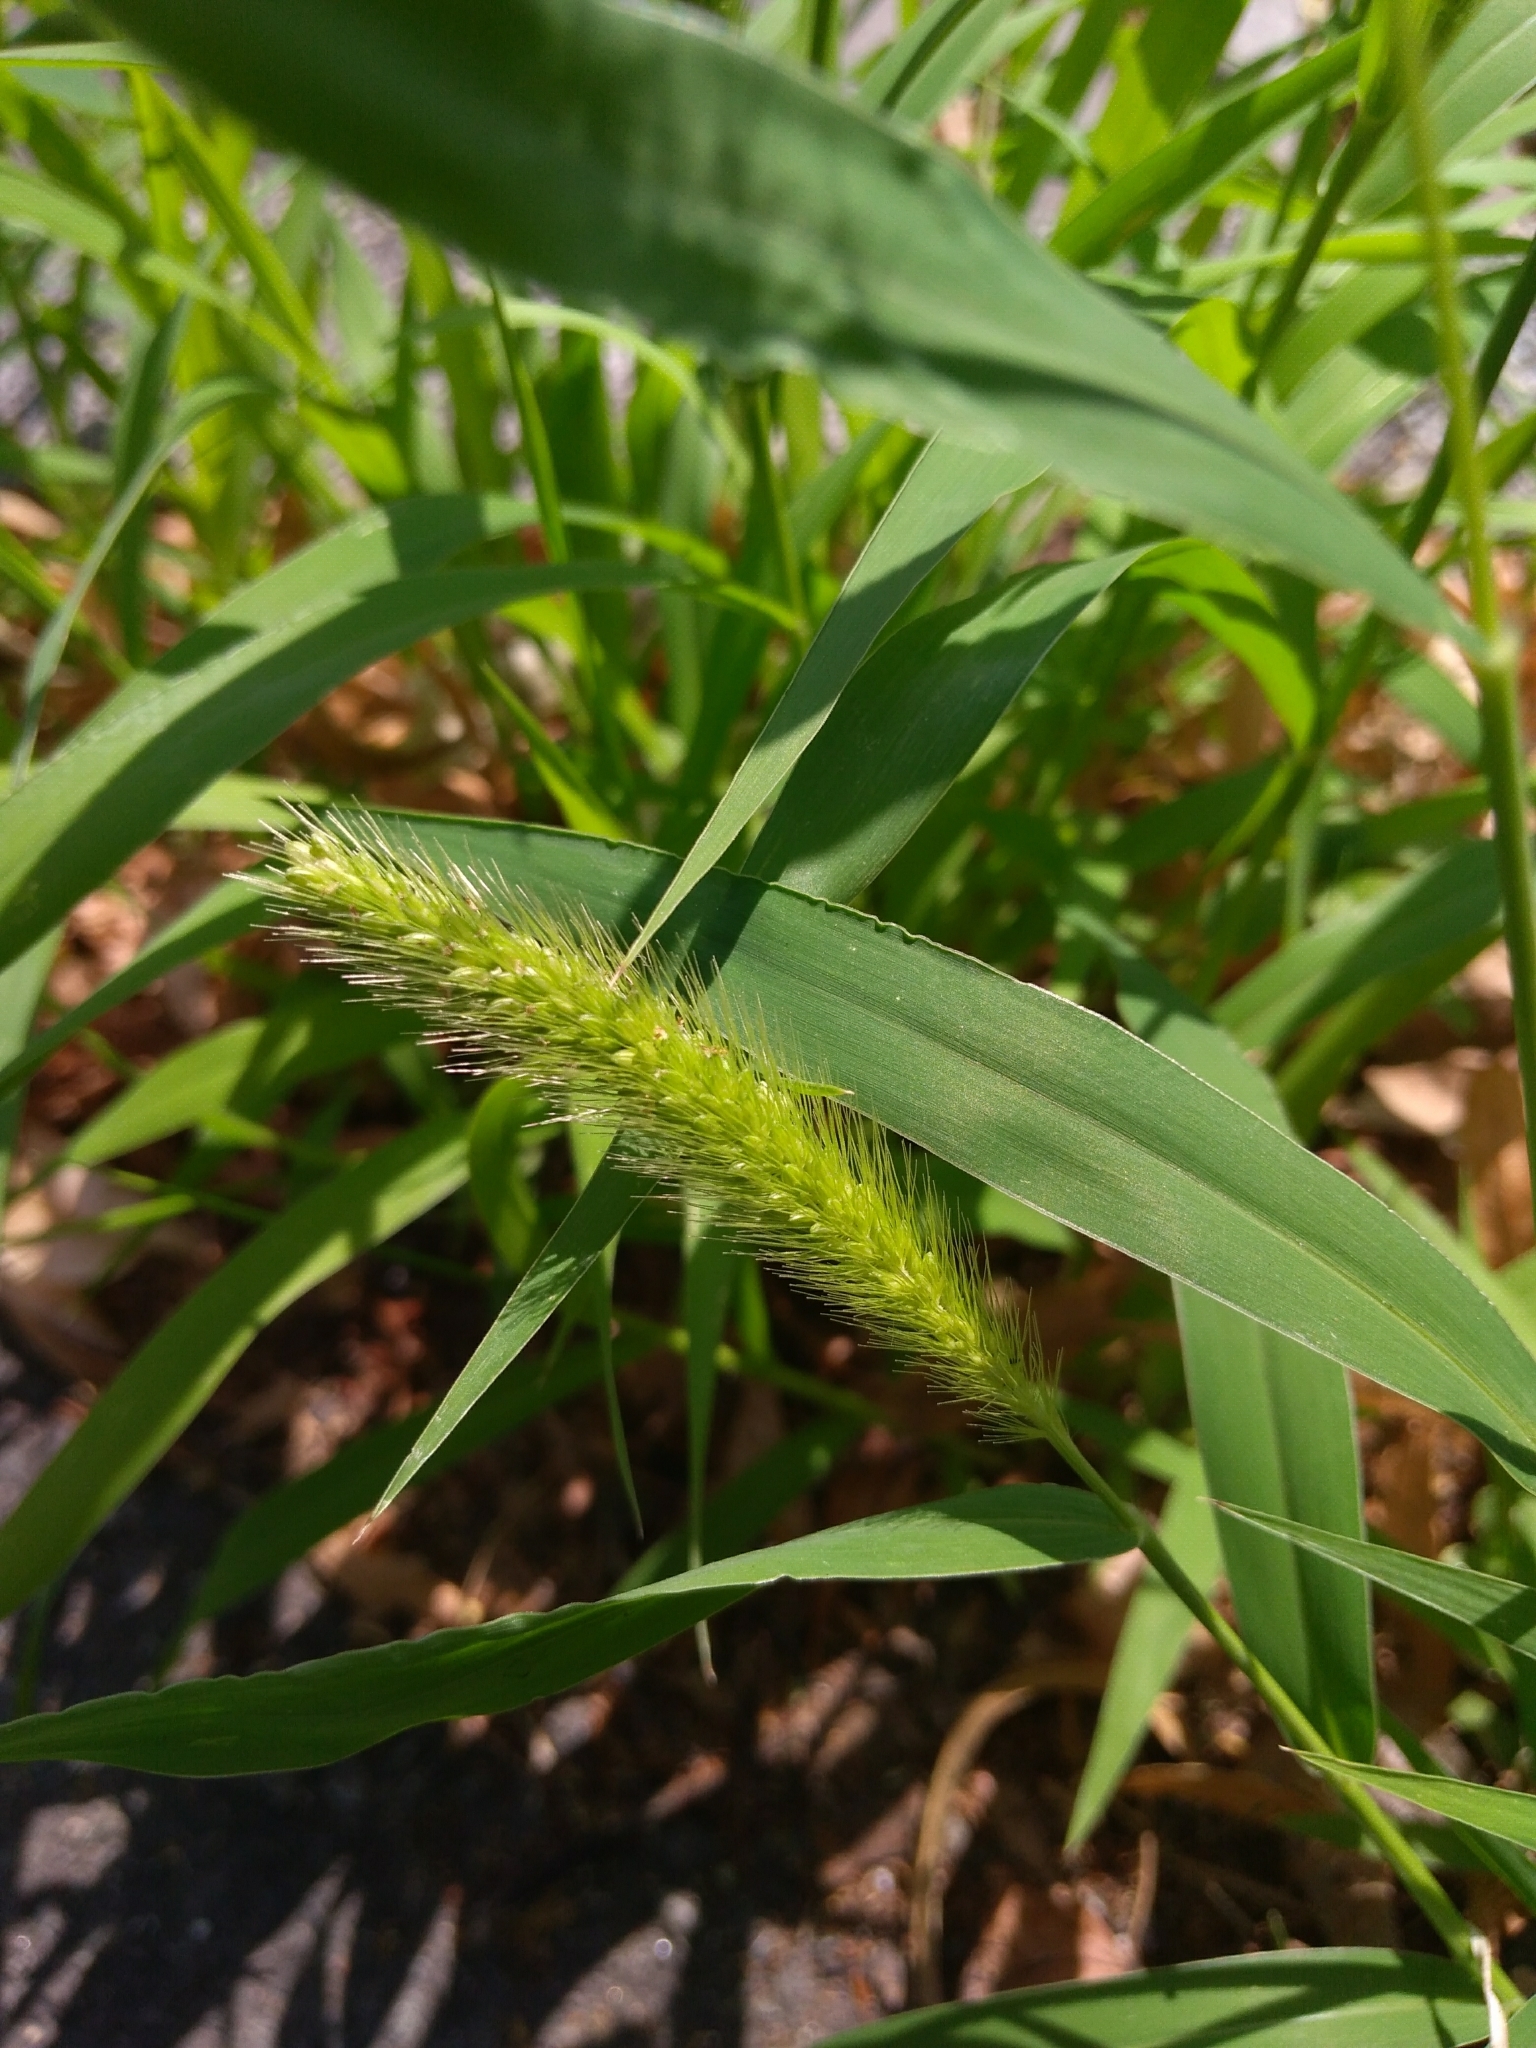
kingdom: Plantae
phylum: Tracheophyta
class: Liliopsida
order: Poales
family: Poaceae
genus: Setaria
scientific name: Setaria viridis
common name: Green bristlegrass
